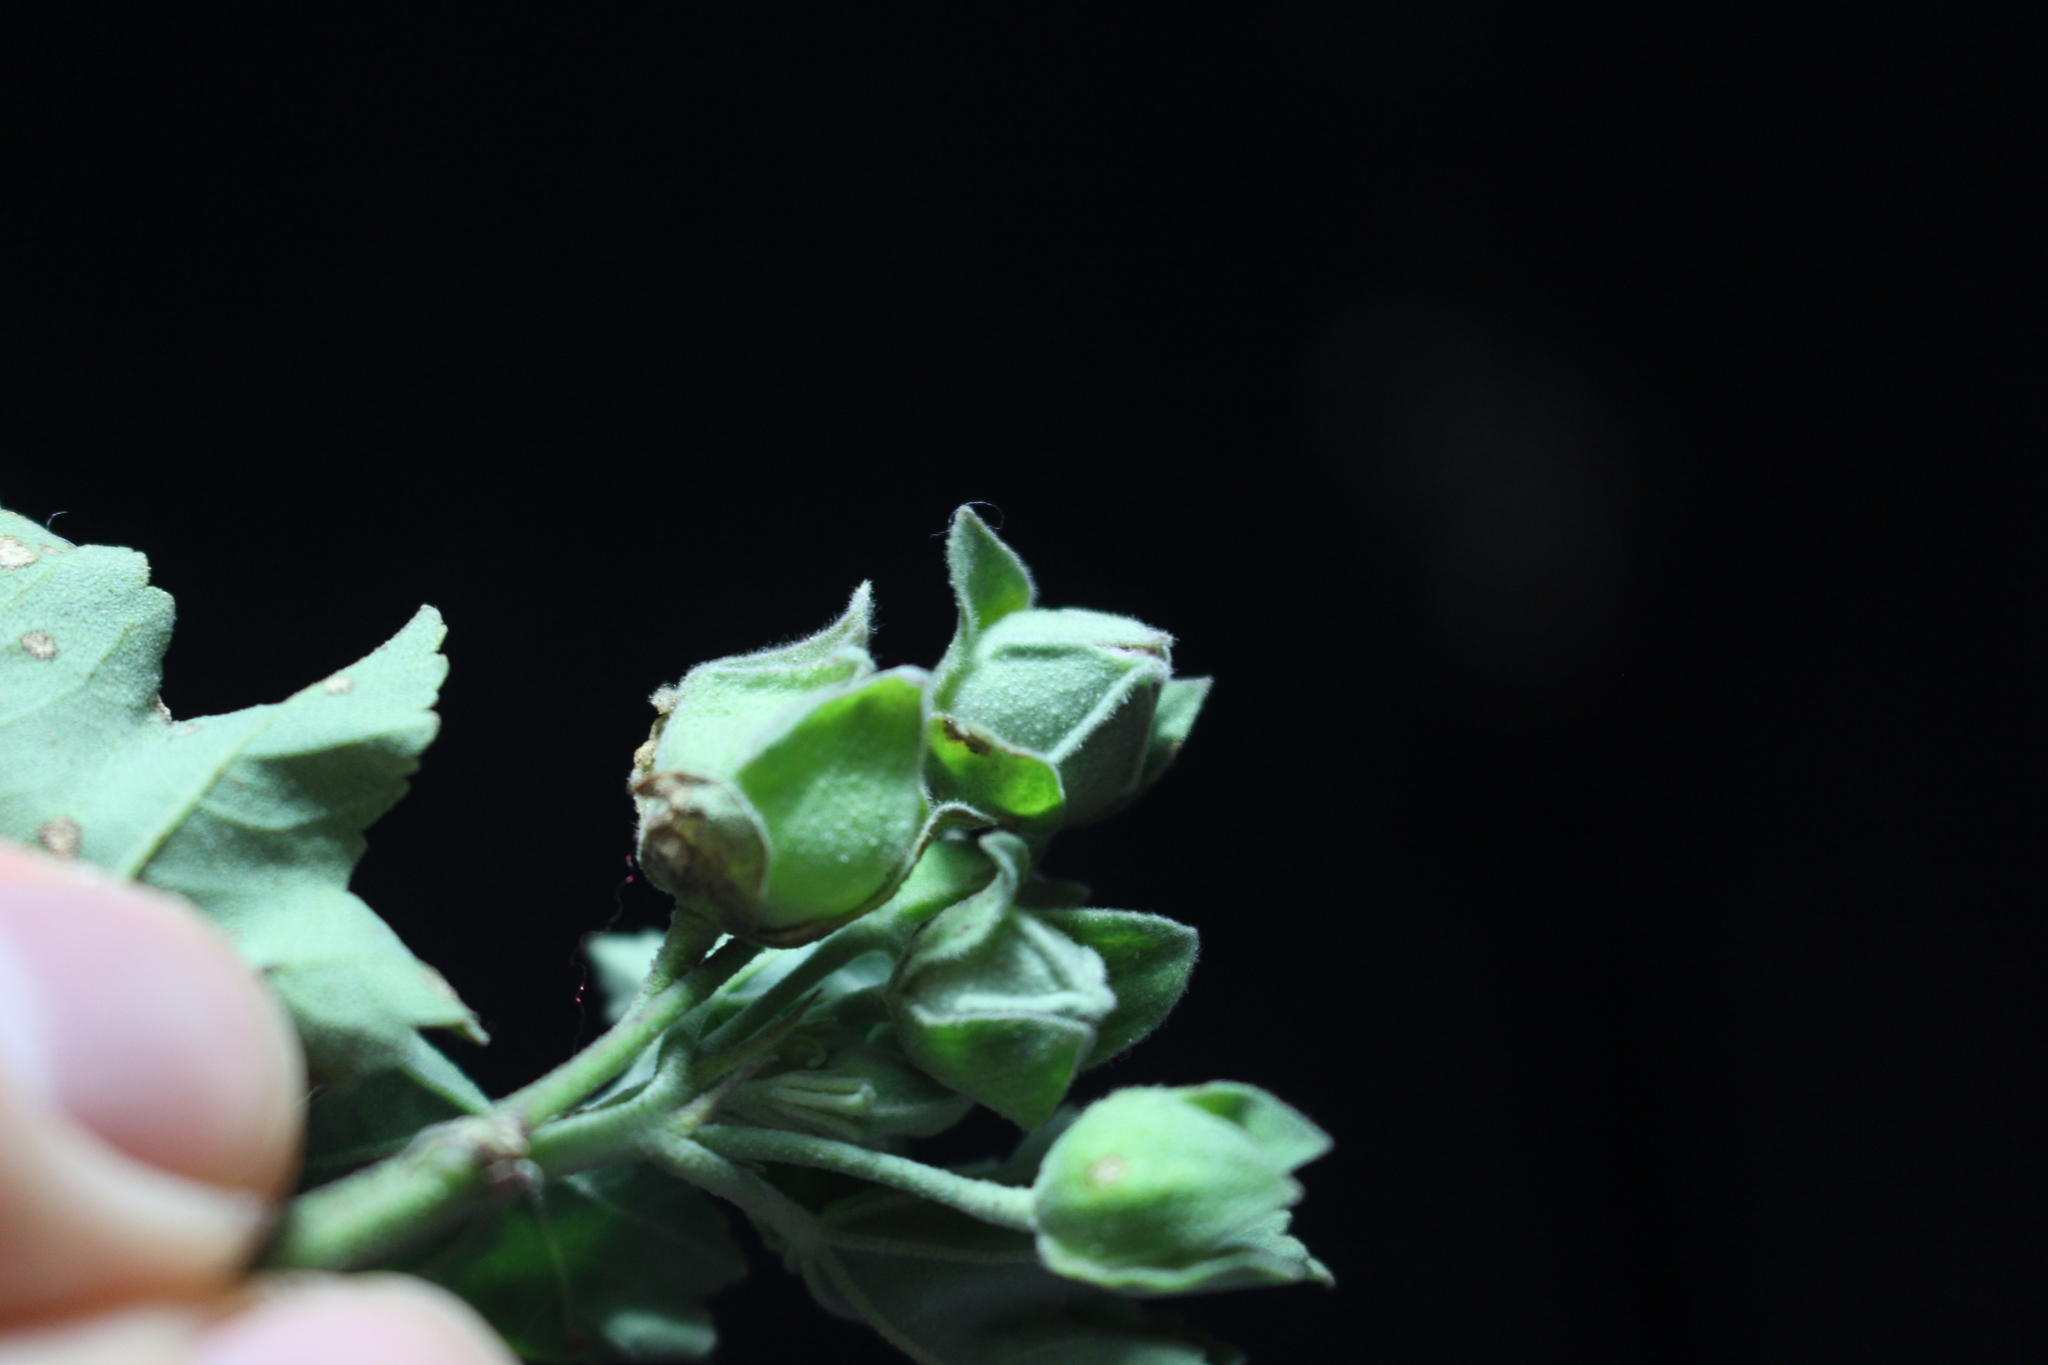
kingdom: Plantae
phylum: Tracheophyta
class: Magnoliopsida
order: Malvales
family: Malvaceae
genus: Malva
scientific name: Malva arborea
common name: Tree mallow
